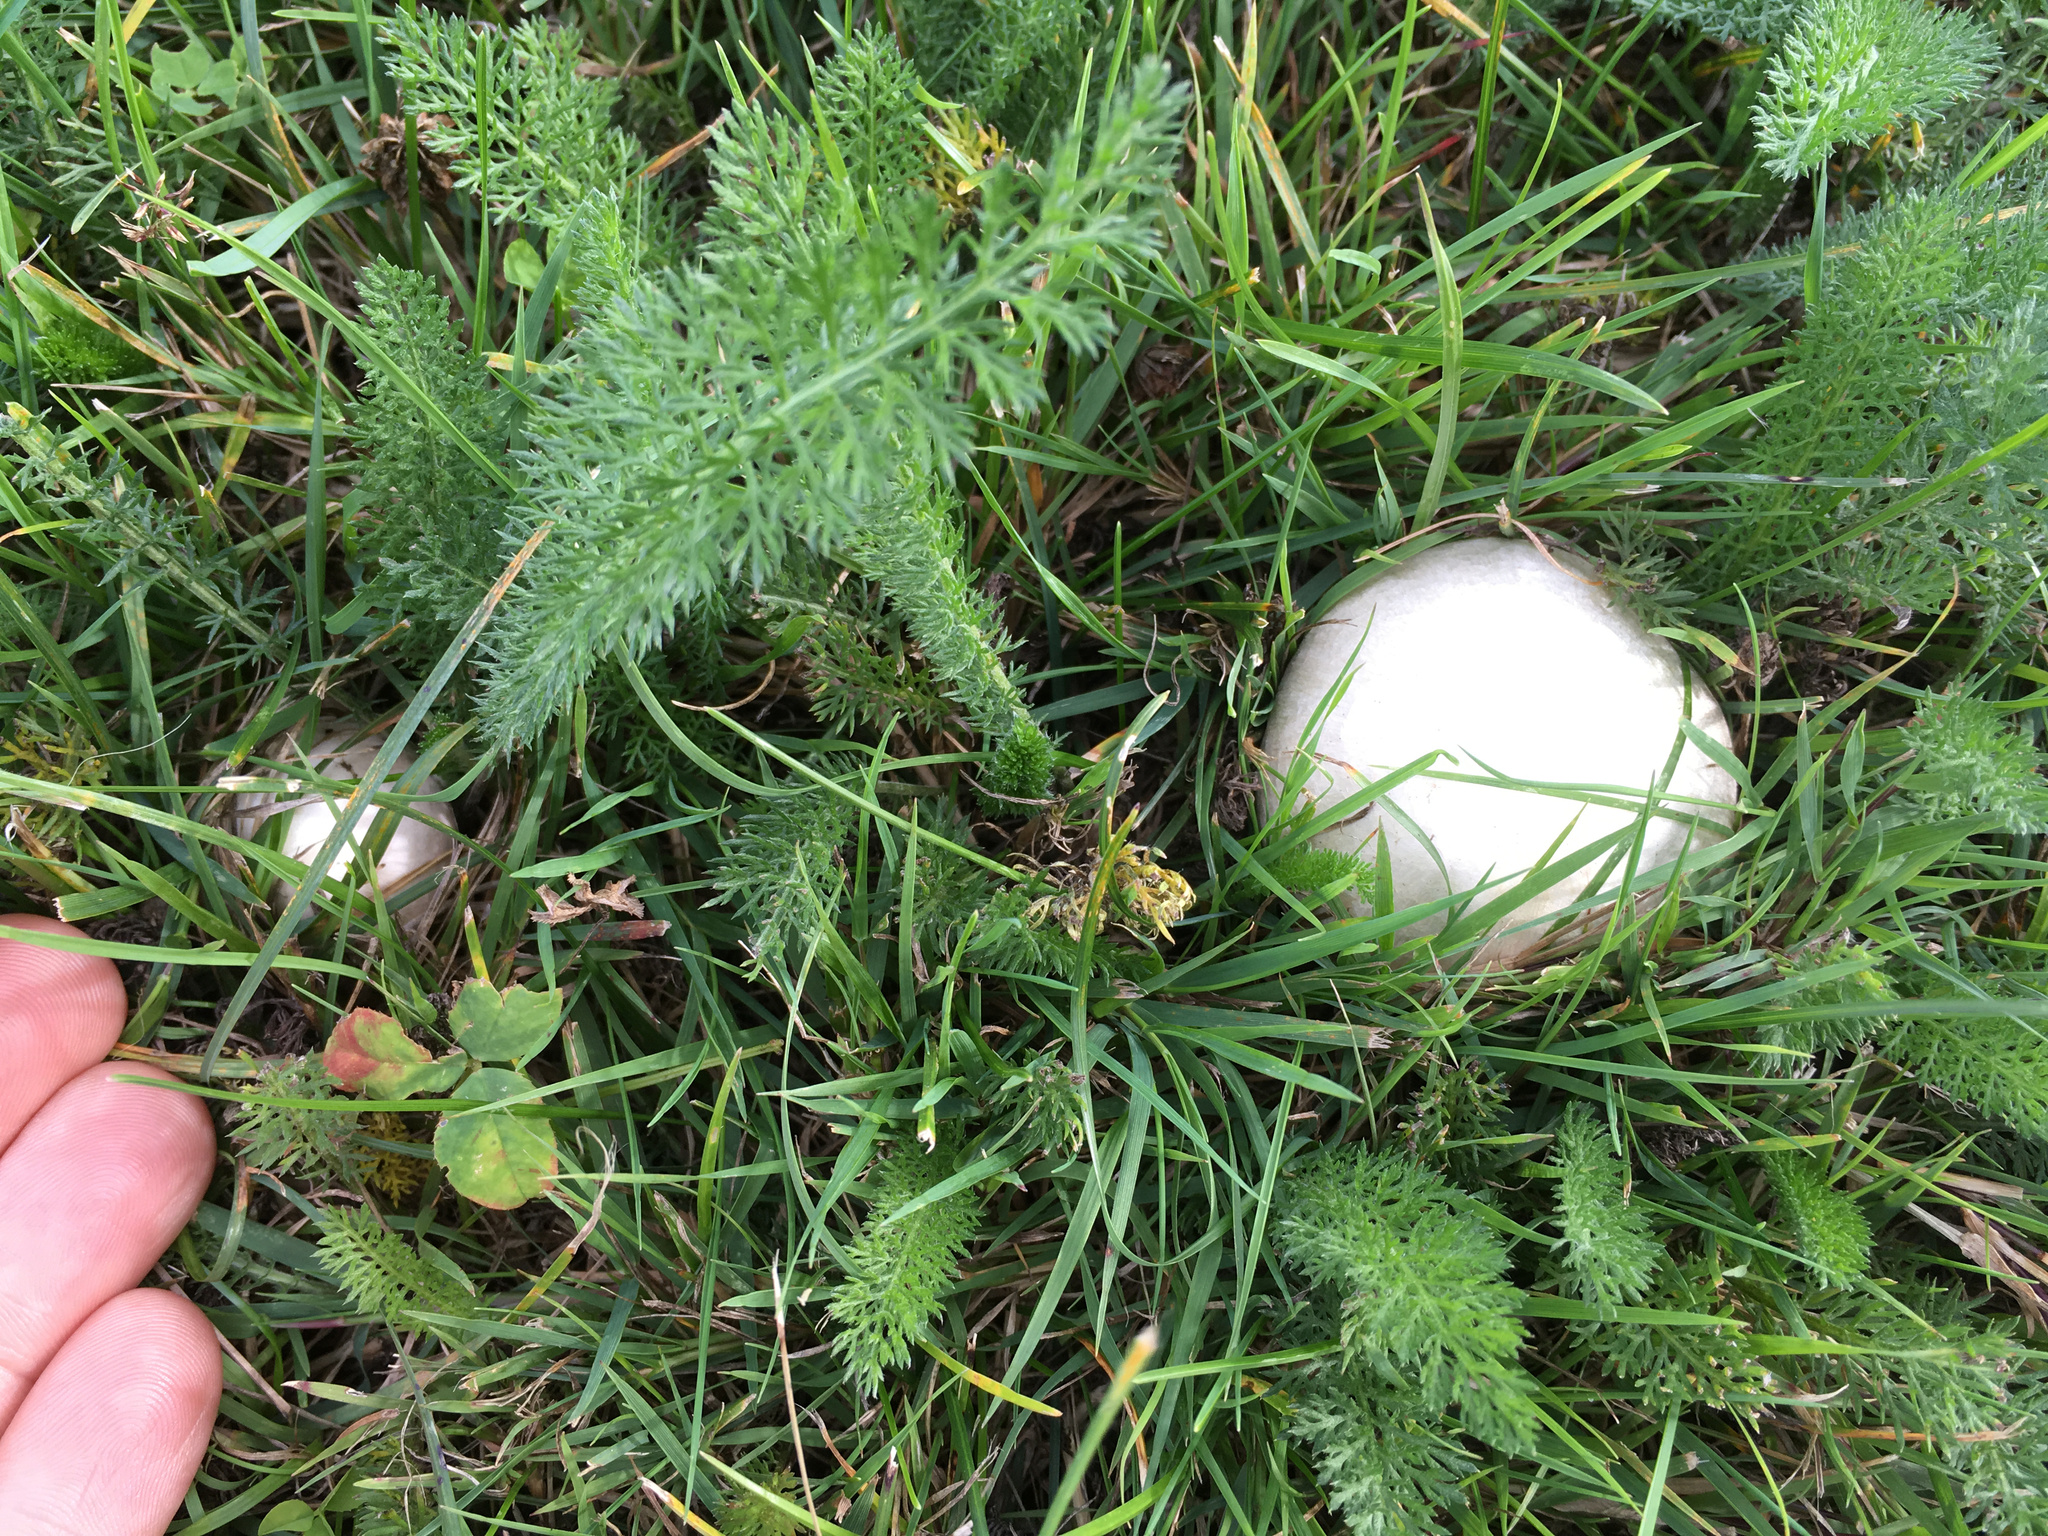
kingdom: Fungi
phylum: Basidiomycota
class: Agaricomycetes
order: Agaricales
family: Agaricaceae
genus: Agaricus
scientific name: Agaricus
